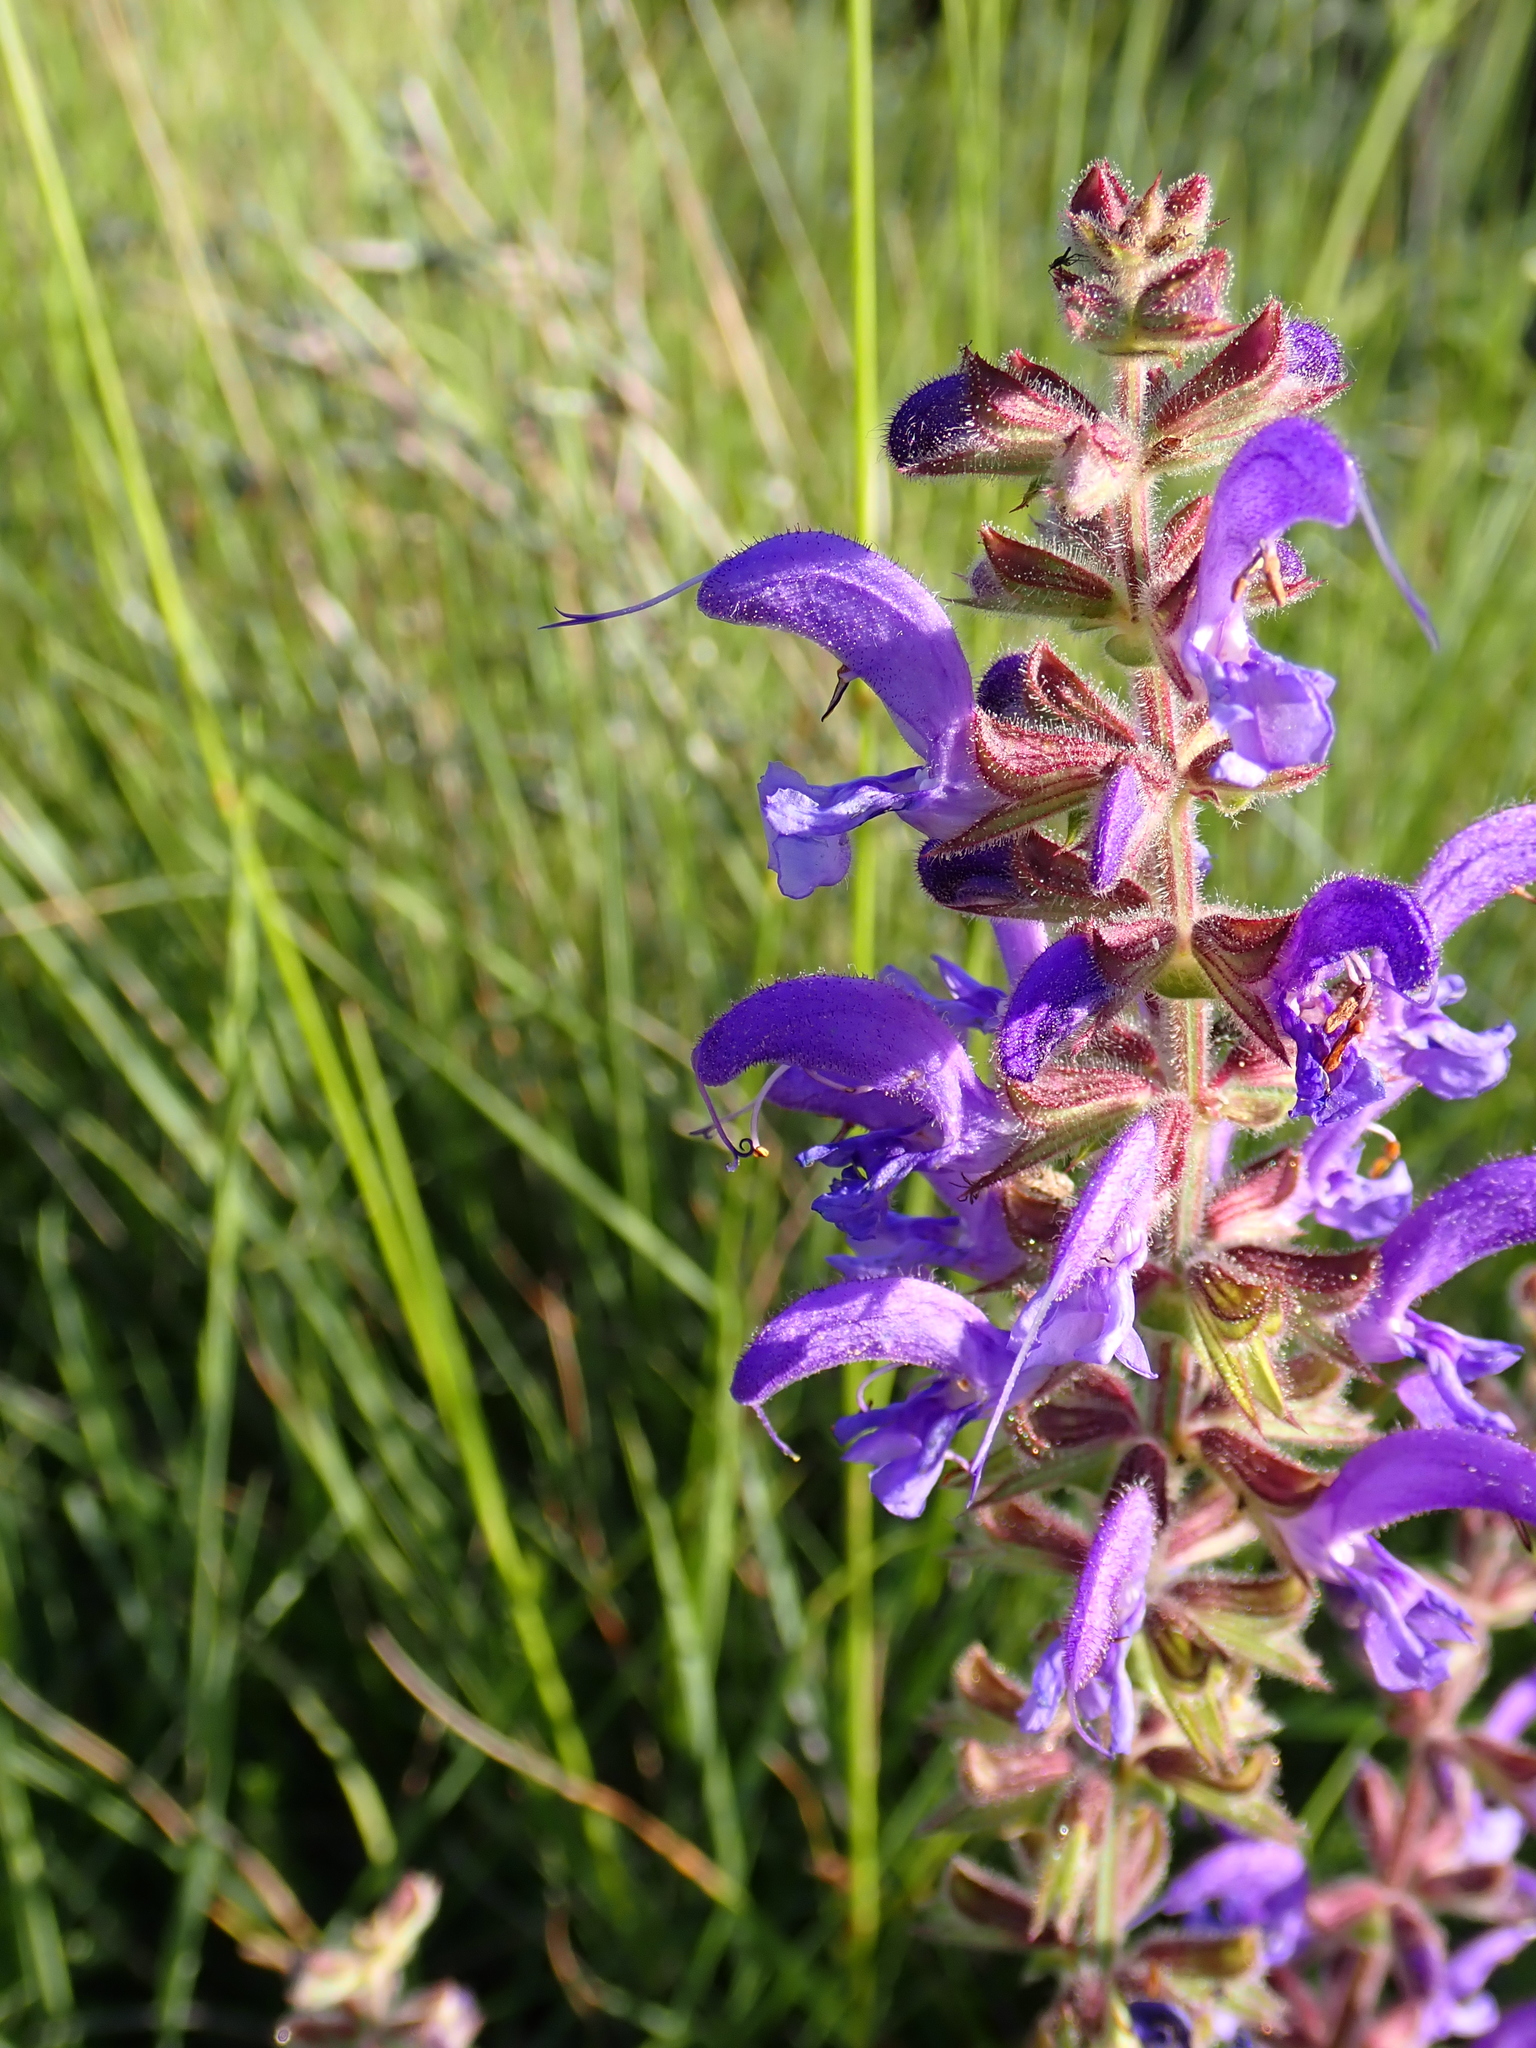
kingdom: Plantae
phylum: Tracheophyta
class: Magnoliopsida
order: Lamiales
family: Lamiaceae
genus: Salvia
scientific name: Salvia pratensis
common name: Meadow sage
